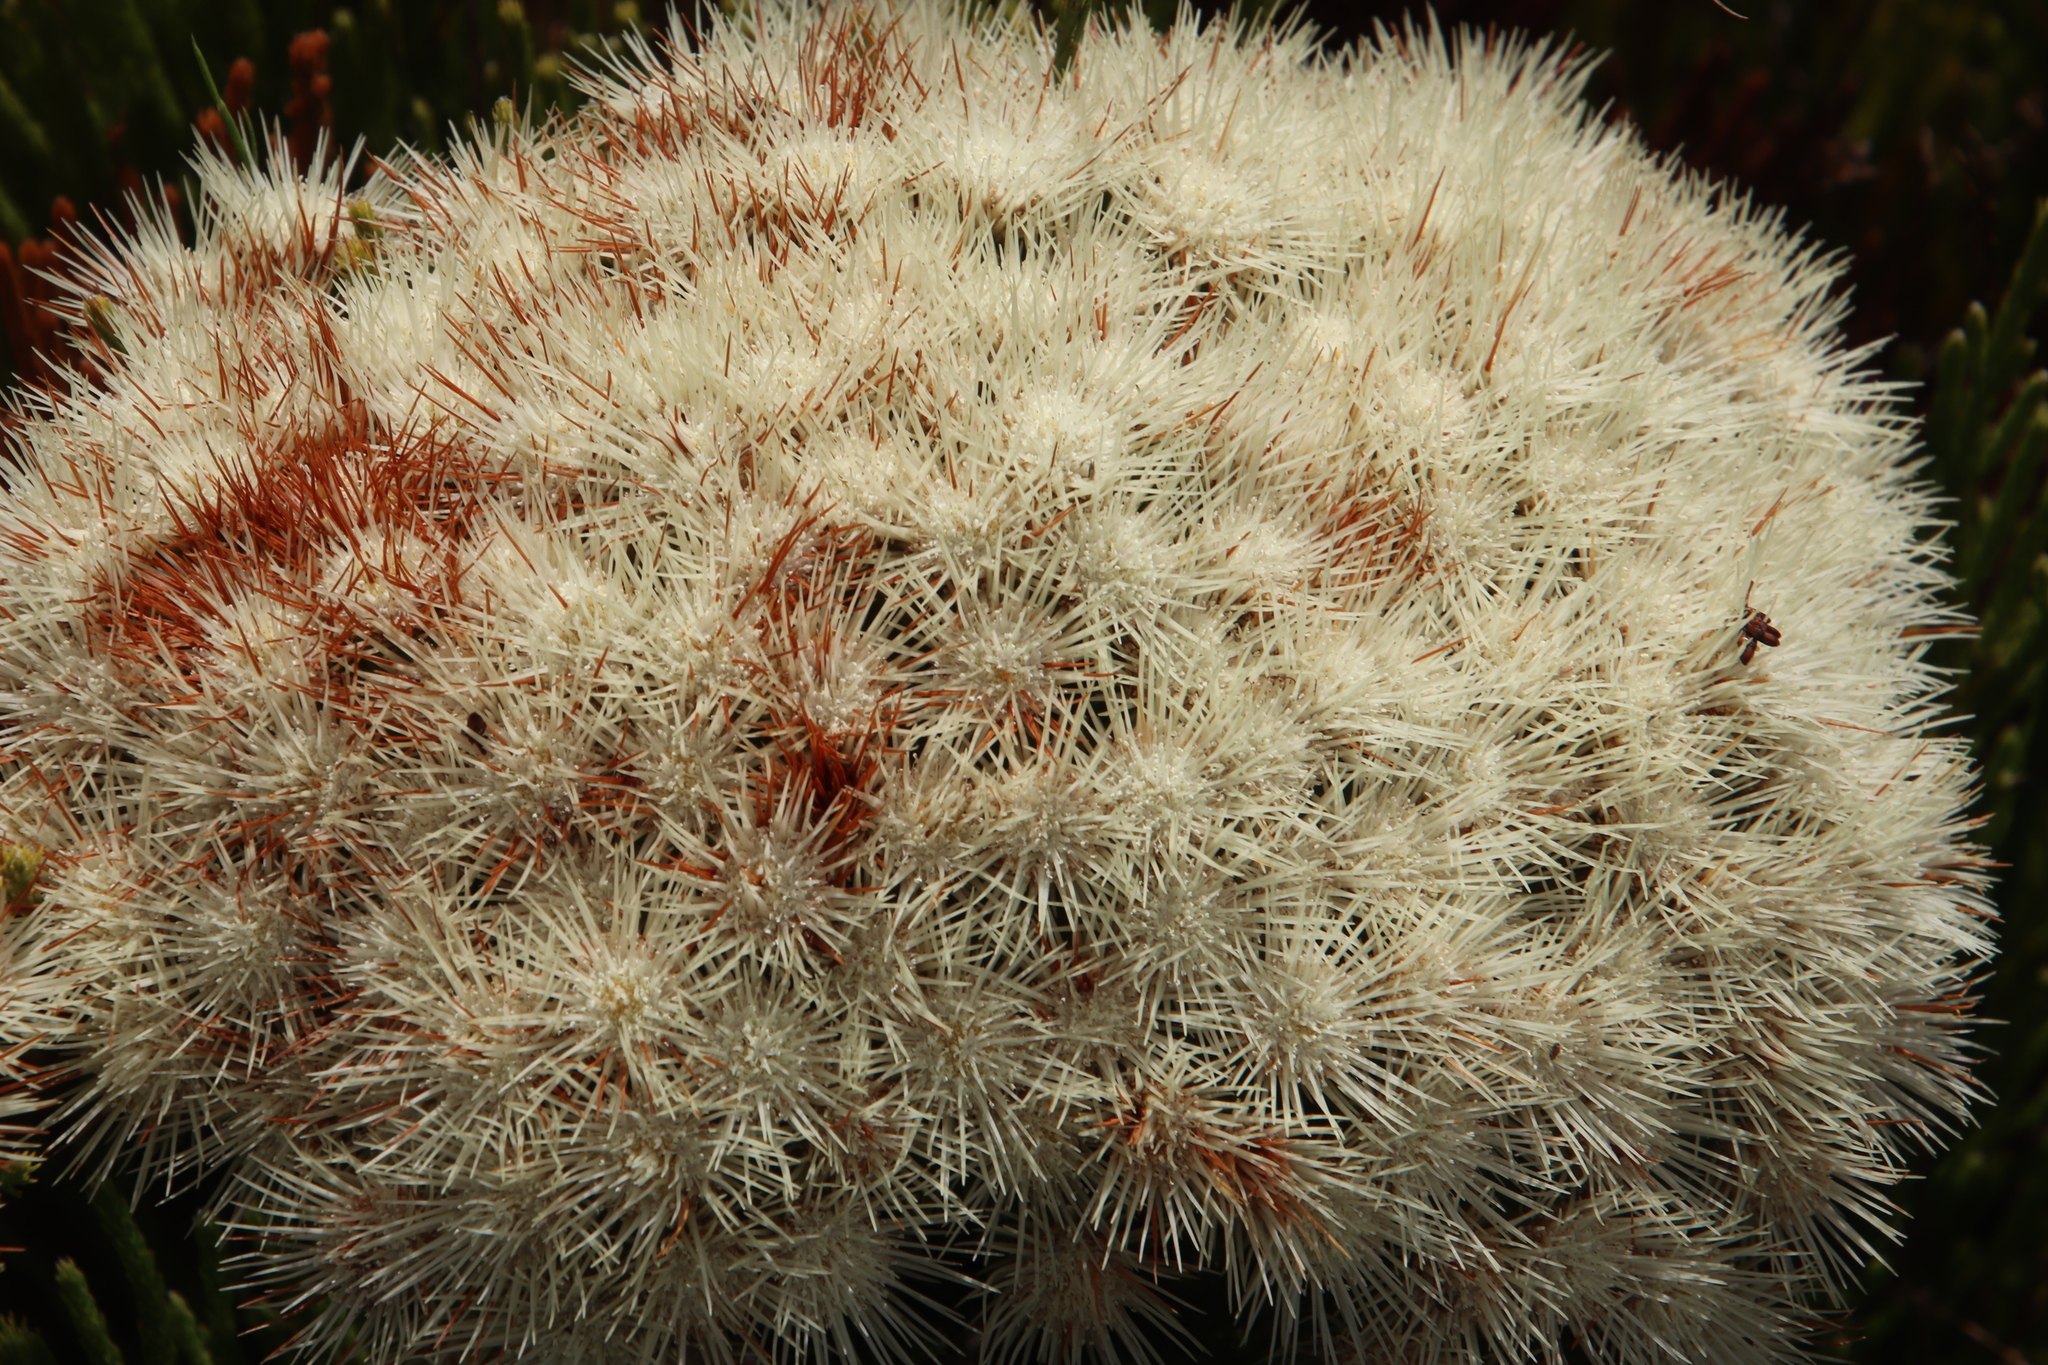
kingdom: Plantae
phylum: Tracheophyta
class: Magnoliopsida
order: Bruniales
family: Bruniaceae
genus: Brunia
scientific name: Brunia paleacea
